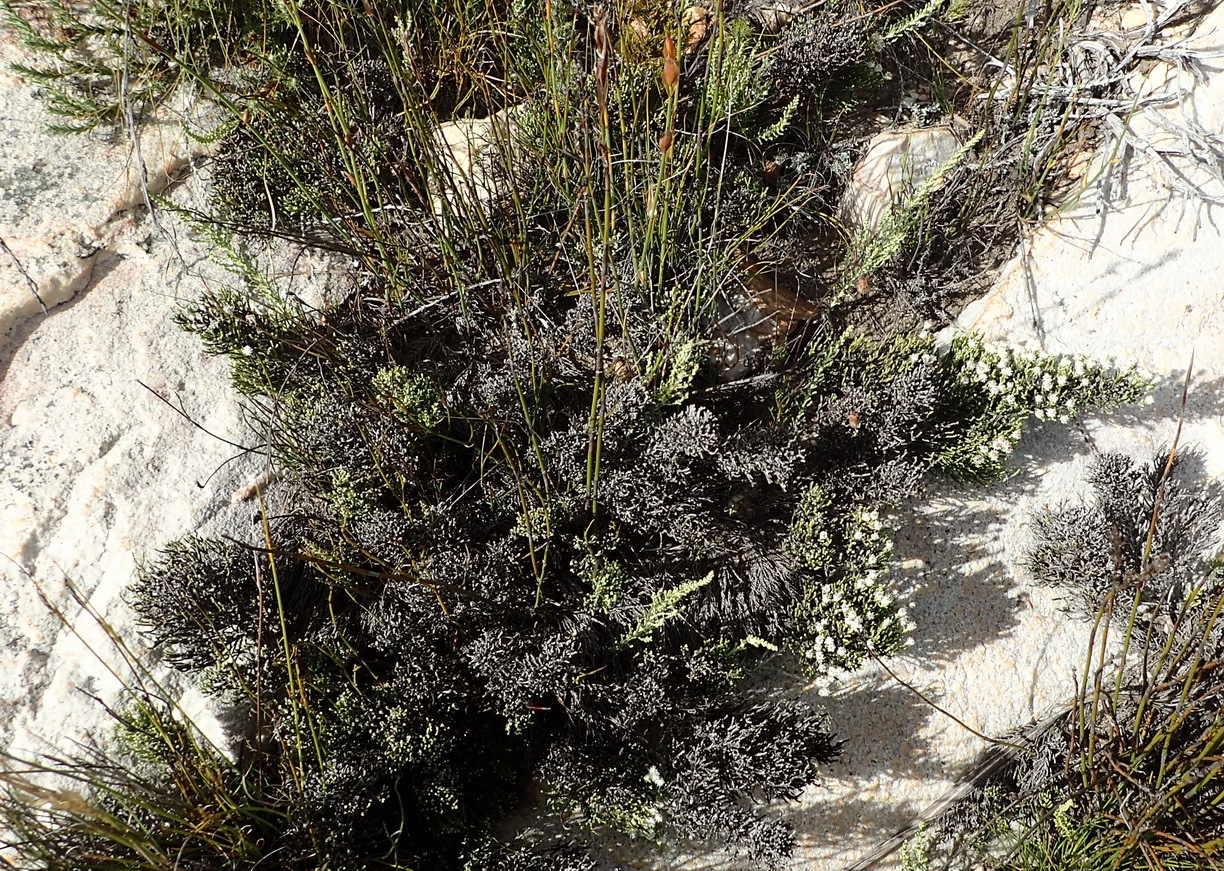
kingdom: Plantae
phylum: Tracheophyta
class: Magnoliopsida
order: Asterales
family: Asteraceae
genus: Dolichothrix
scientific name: Dolichothrix ericoides
